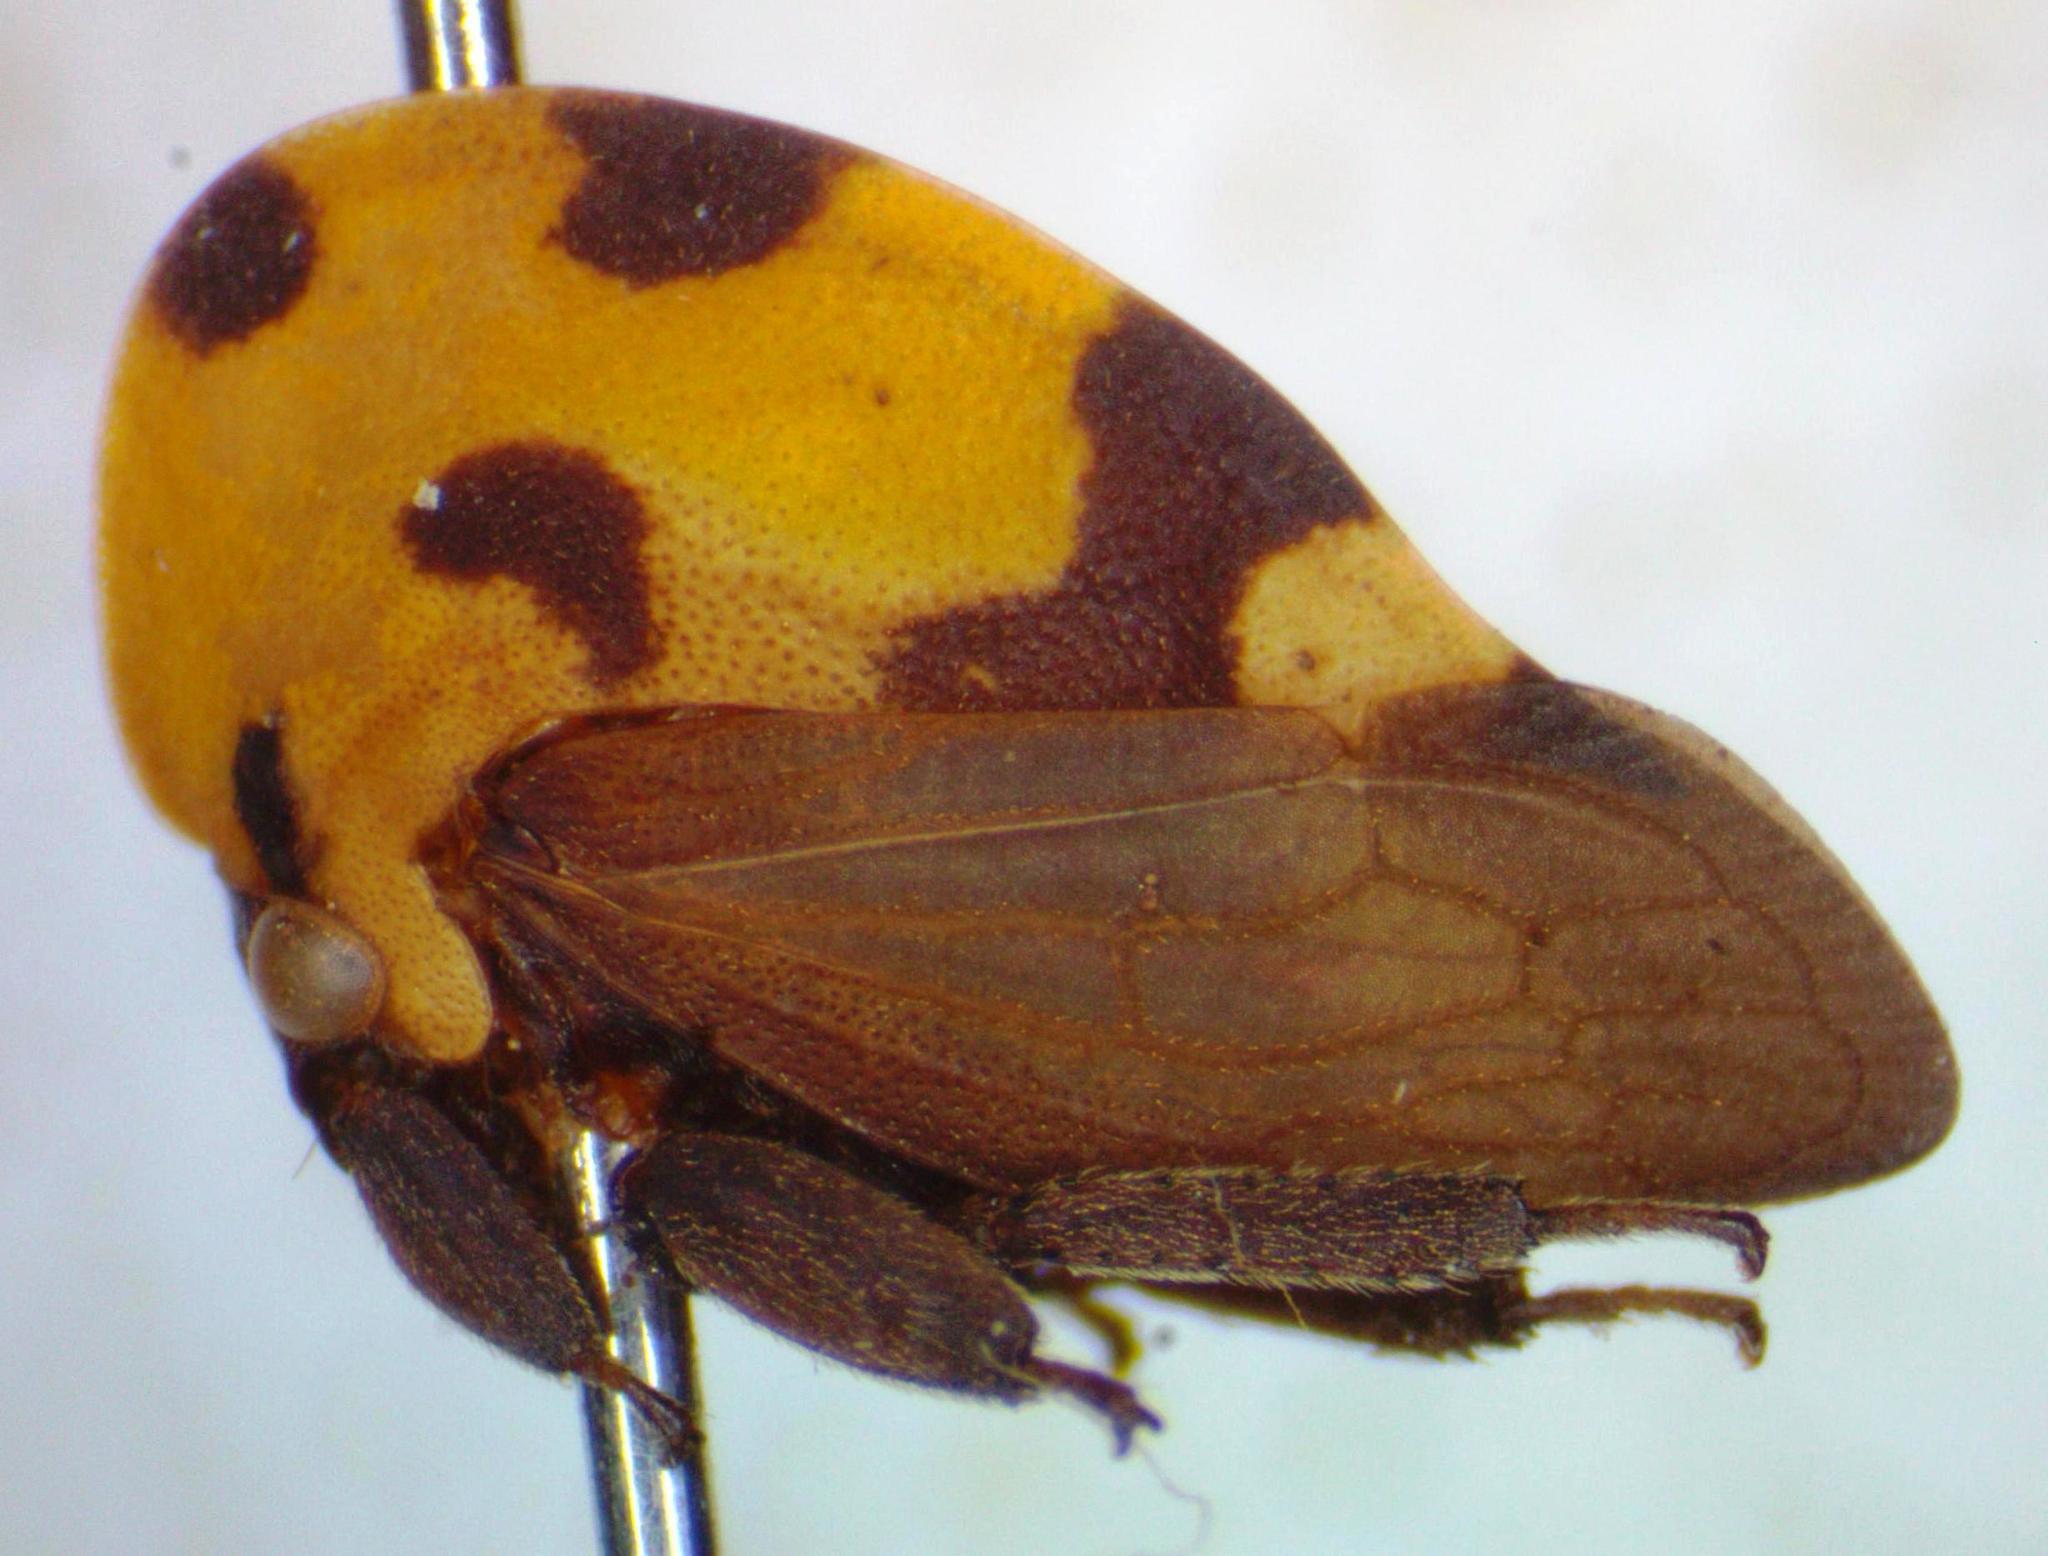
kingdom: Animalia
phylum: Arthropoda
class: Insecta
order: Hemiptera
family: Membracidae
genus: Membracis
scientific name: Membracis mexicana
